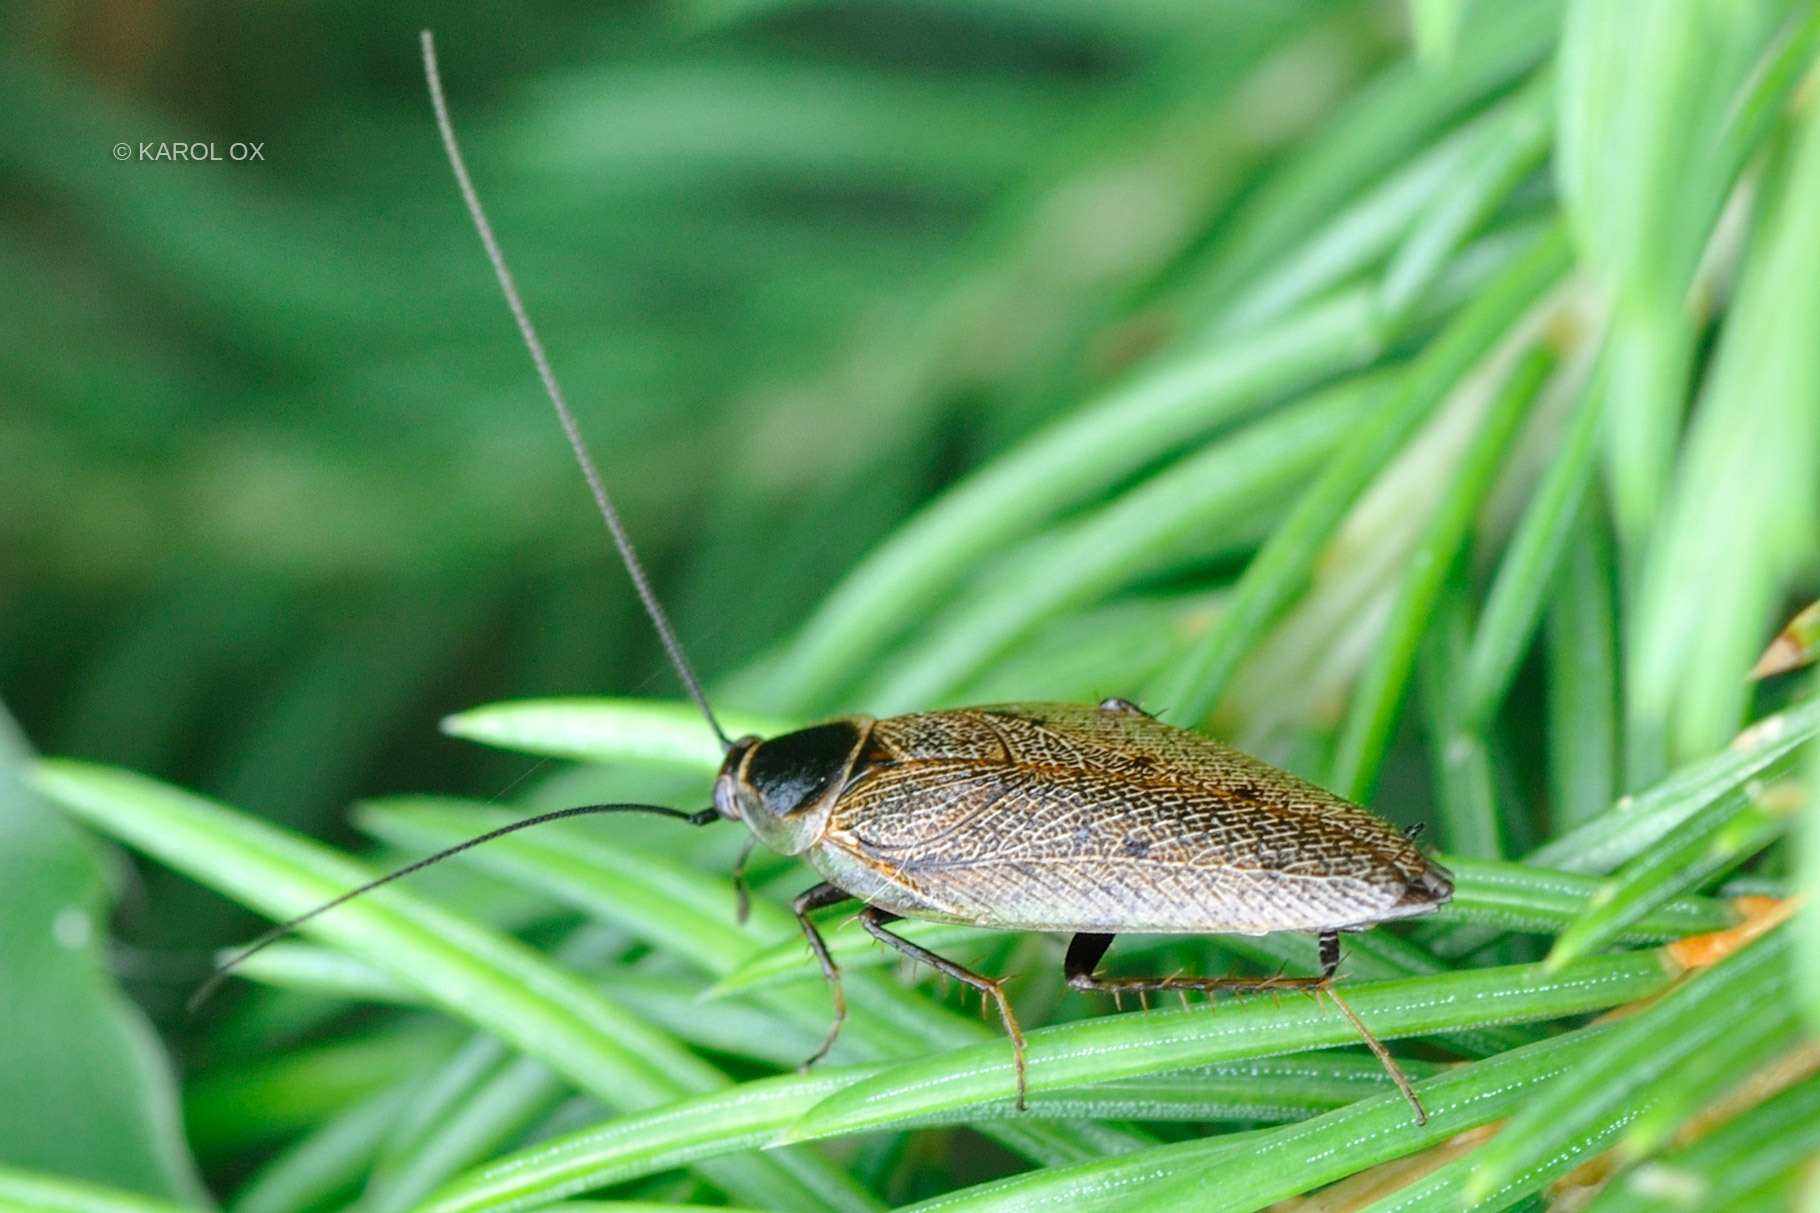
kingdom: Animalia
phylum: Arthropoda
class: Insecta
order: Blattodea
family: Ectobiidae
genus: Ectobius
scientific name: Ectobius lapponicus
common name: Dusky cockroach
